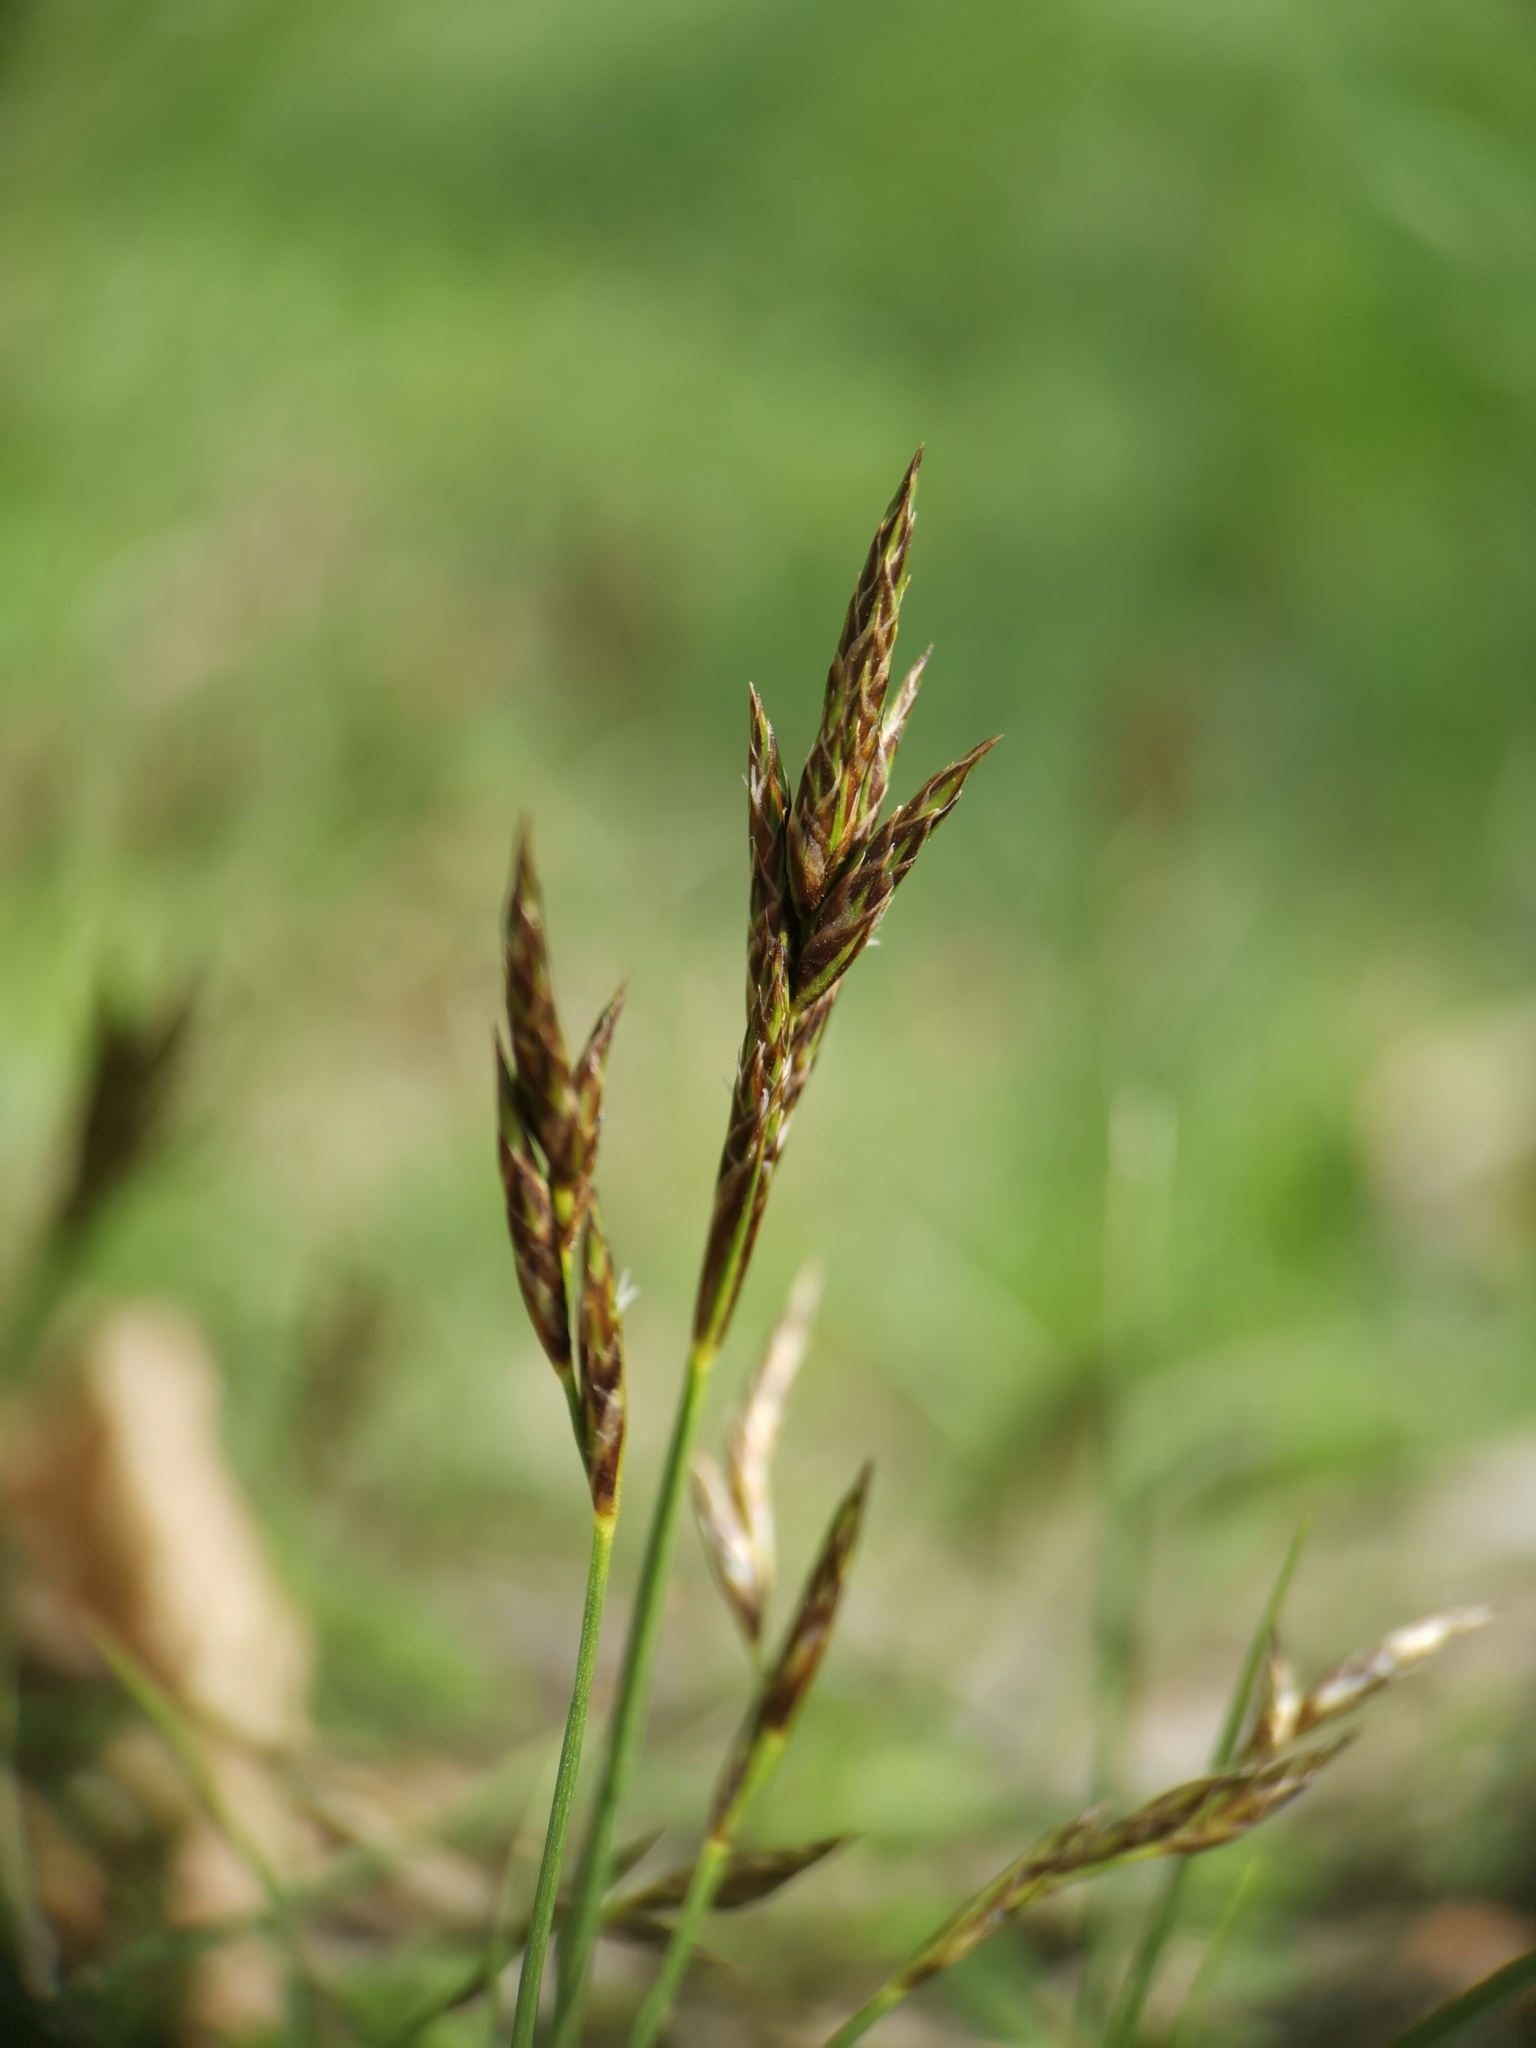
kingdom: Plantae
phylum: Tracheophyta
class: Liliopsida
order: Poales
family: Cyperaceae
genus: Carex
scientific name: Carex praecox
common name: Early sedge
